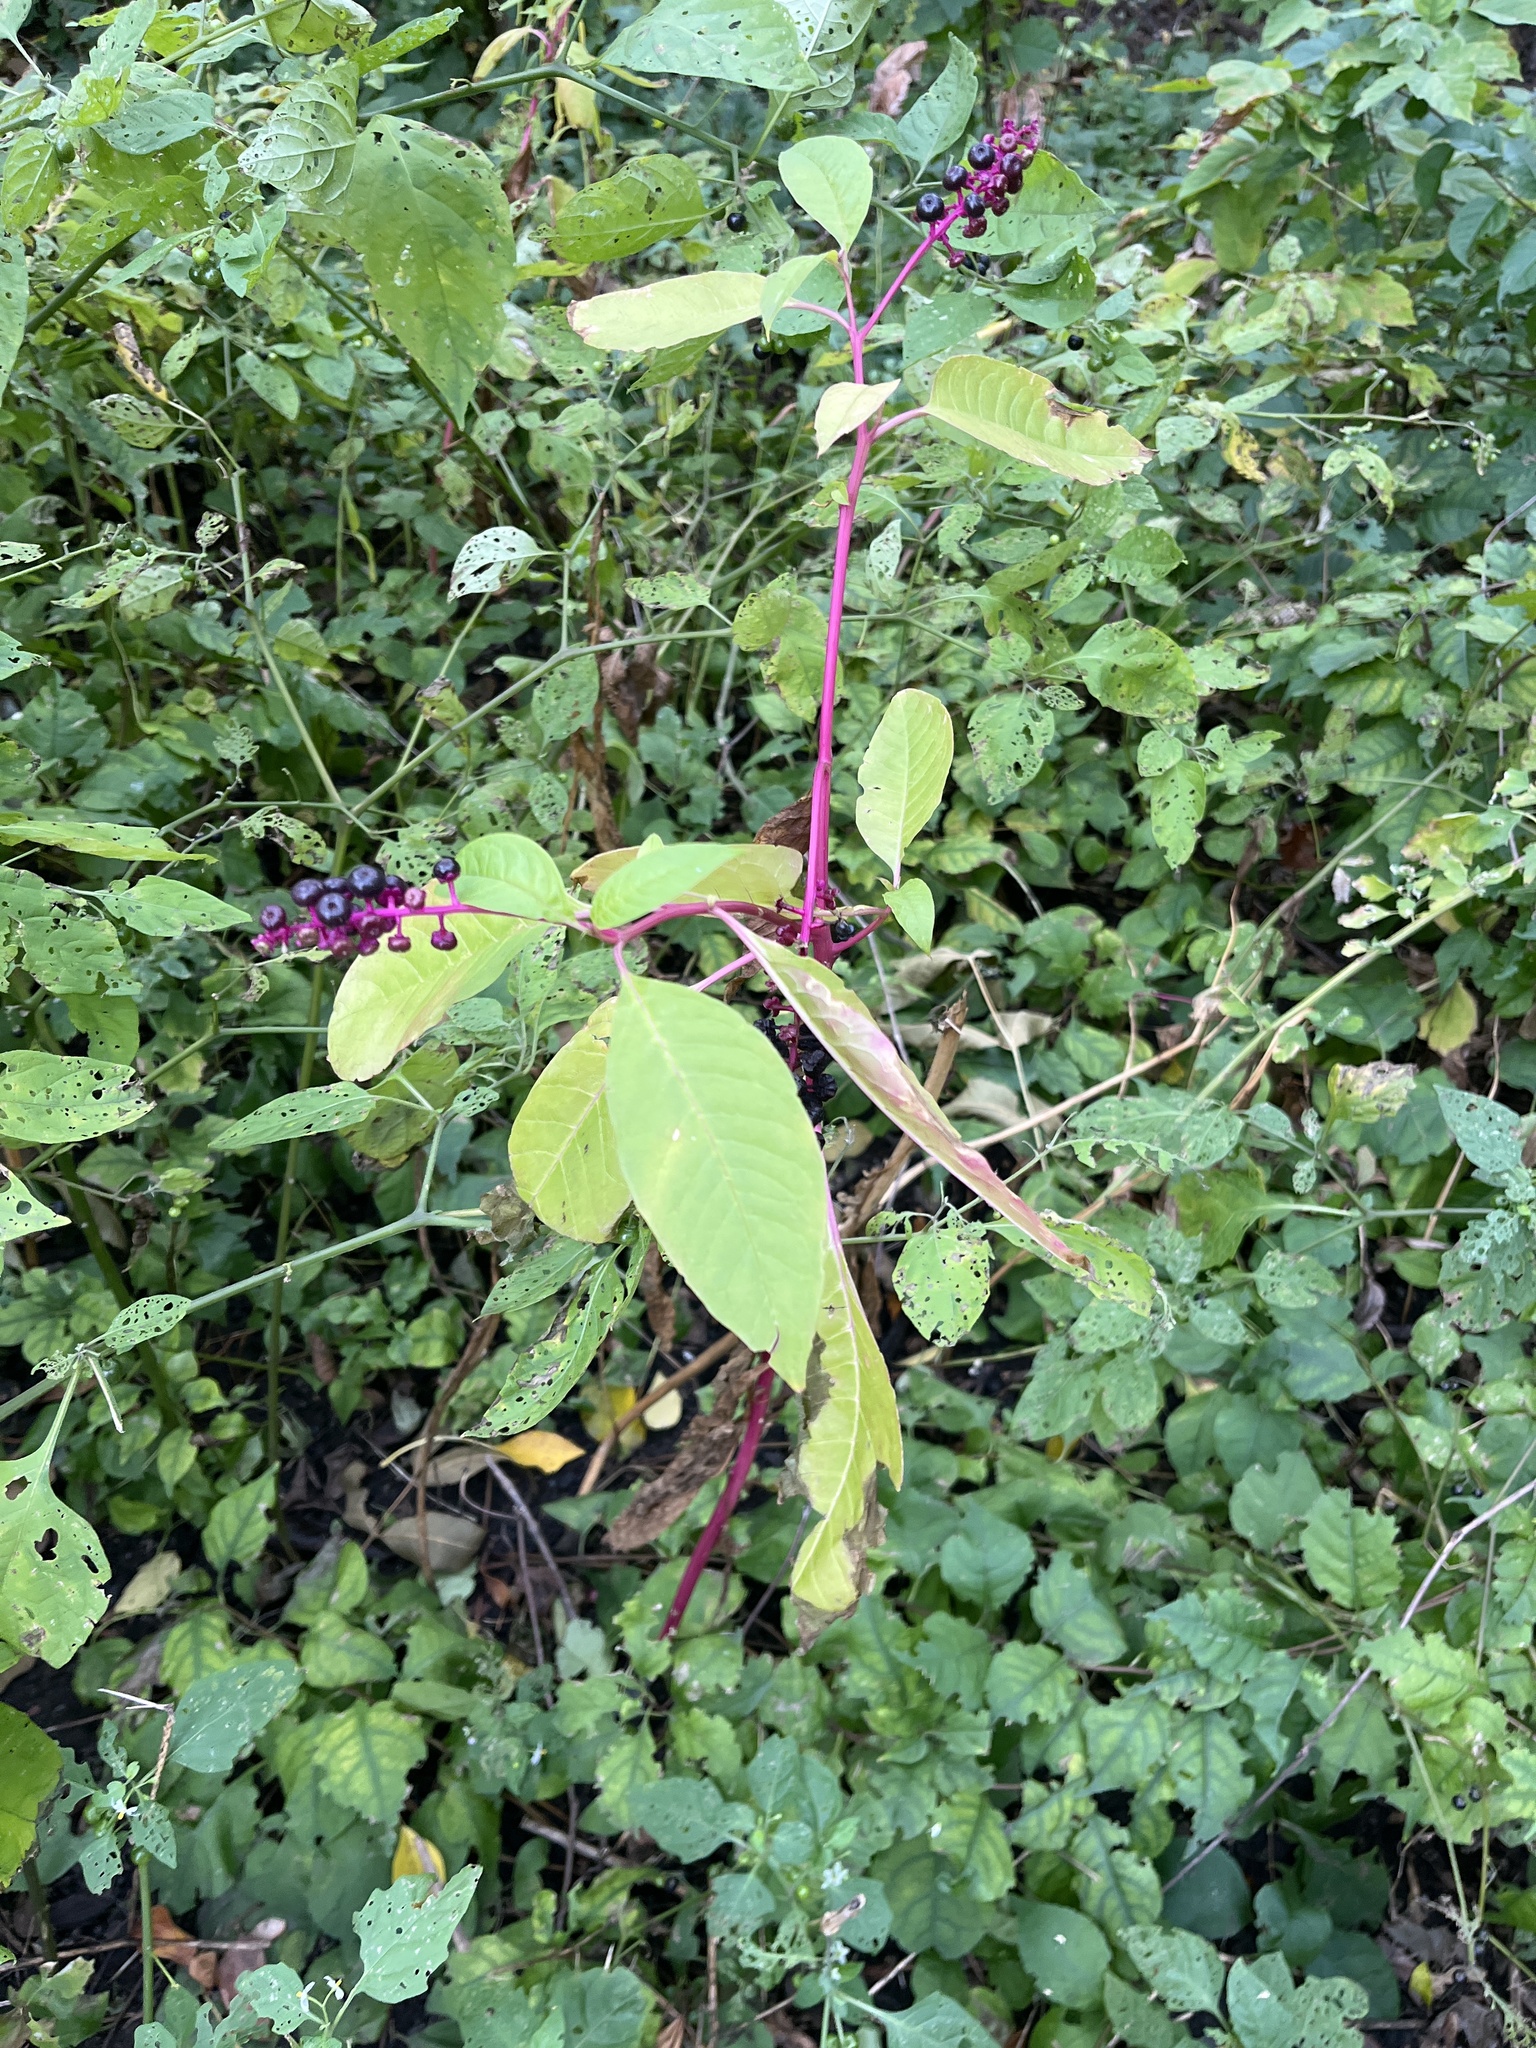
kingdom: Plantae
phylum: Tracheophyta
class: Magnoliopsida
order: Caryophyllales
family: Phytolaccaceae
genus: Phytolacca
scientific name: Phytolacca americana
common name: American pokeweed
